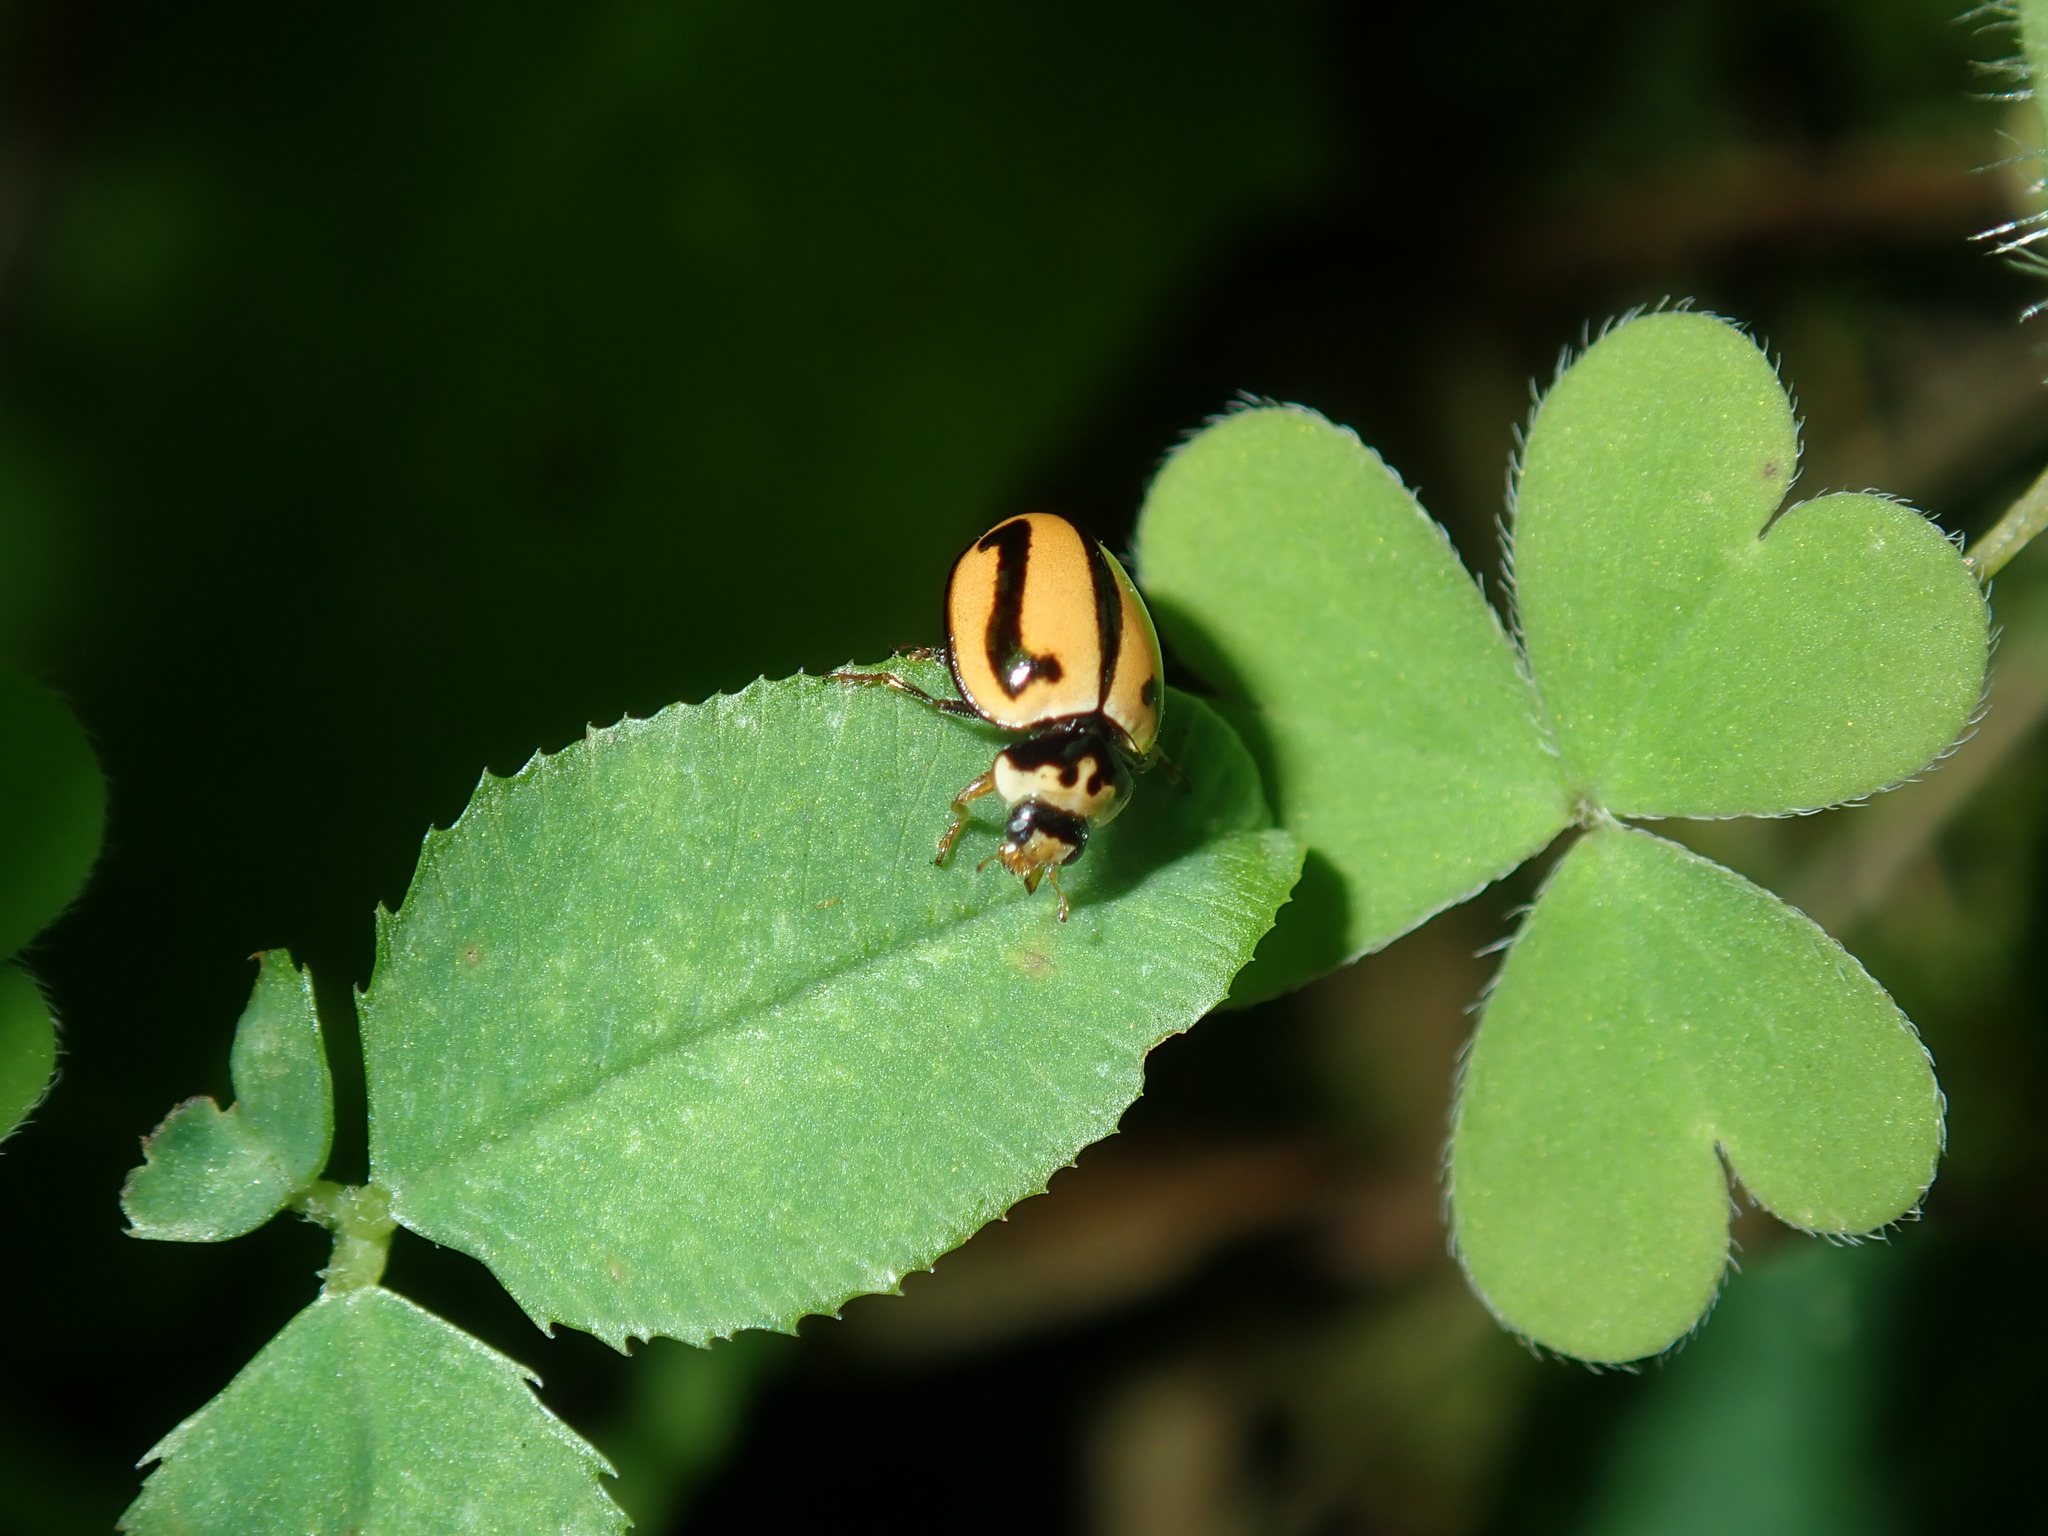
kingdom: Animalia
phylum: Arthropoda
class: Insecta
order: Coleoptera
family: Coccinellidae
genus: Micraspis
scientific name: Micraspis frenata
